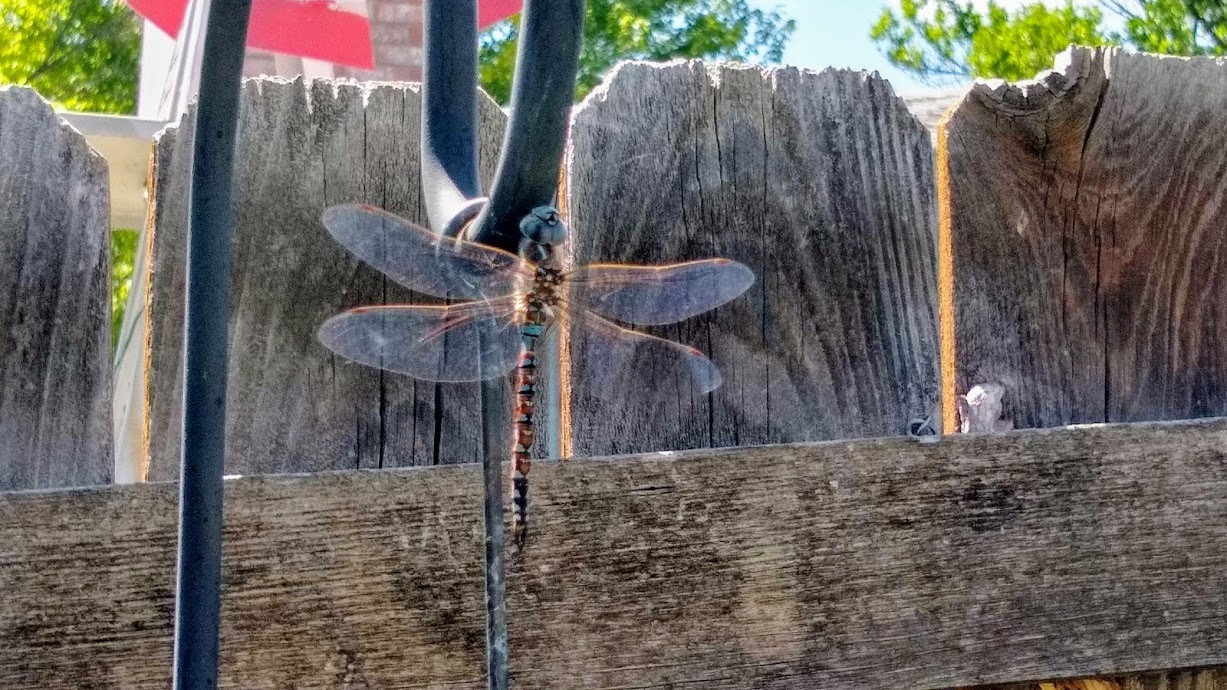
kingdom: Animalia
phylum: Arthropoda
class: Insecta
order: Odonata
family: Aeshnidae
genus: Rhionaeschna
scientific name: Rhionaeschna multicolor
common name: Blue-eyed darner
